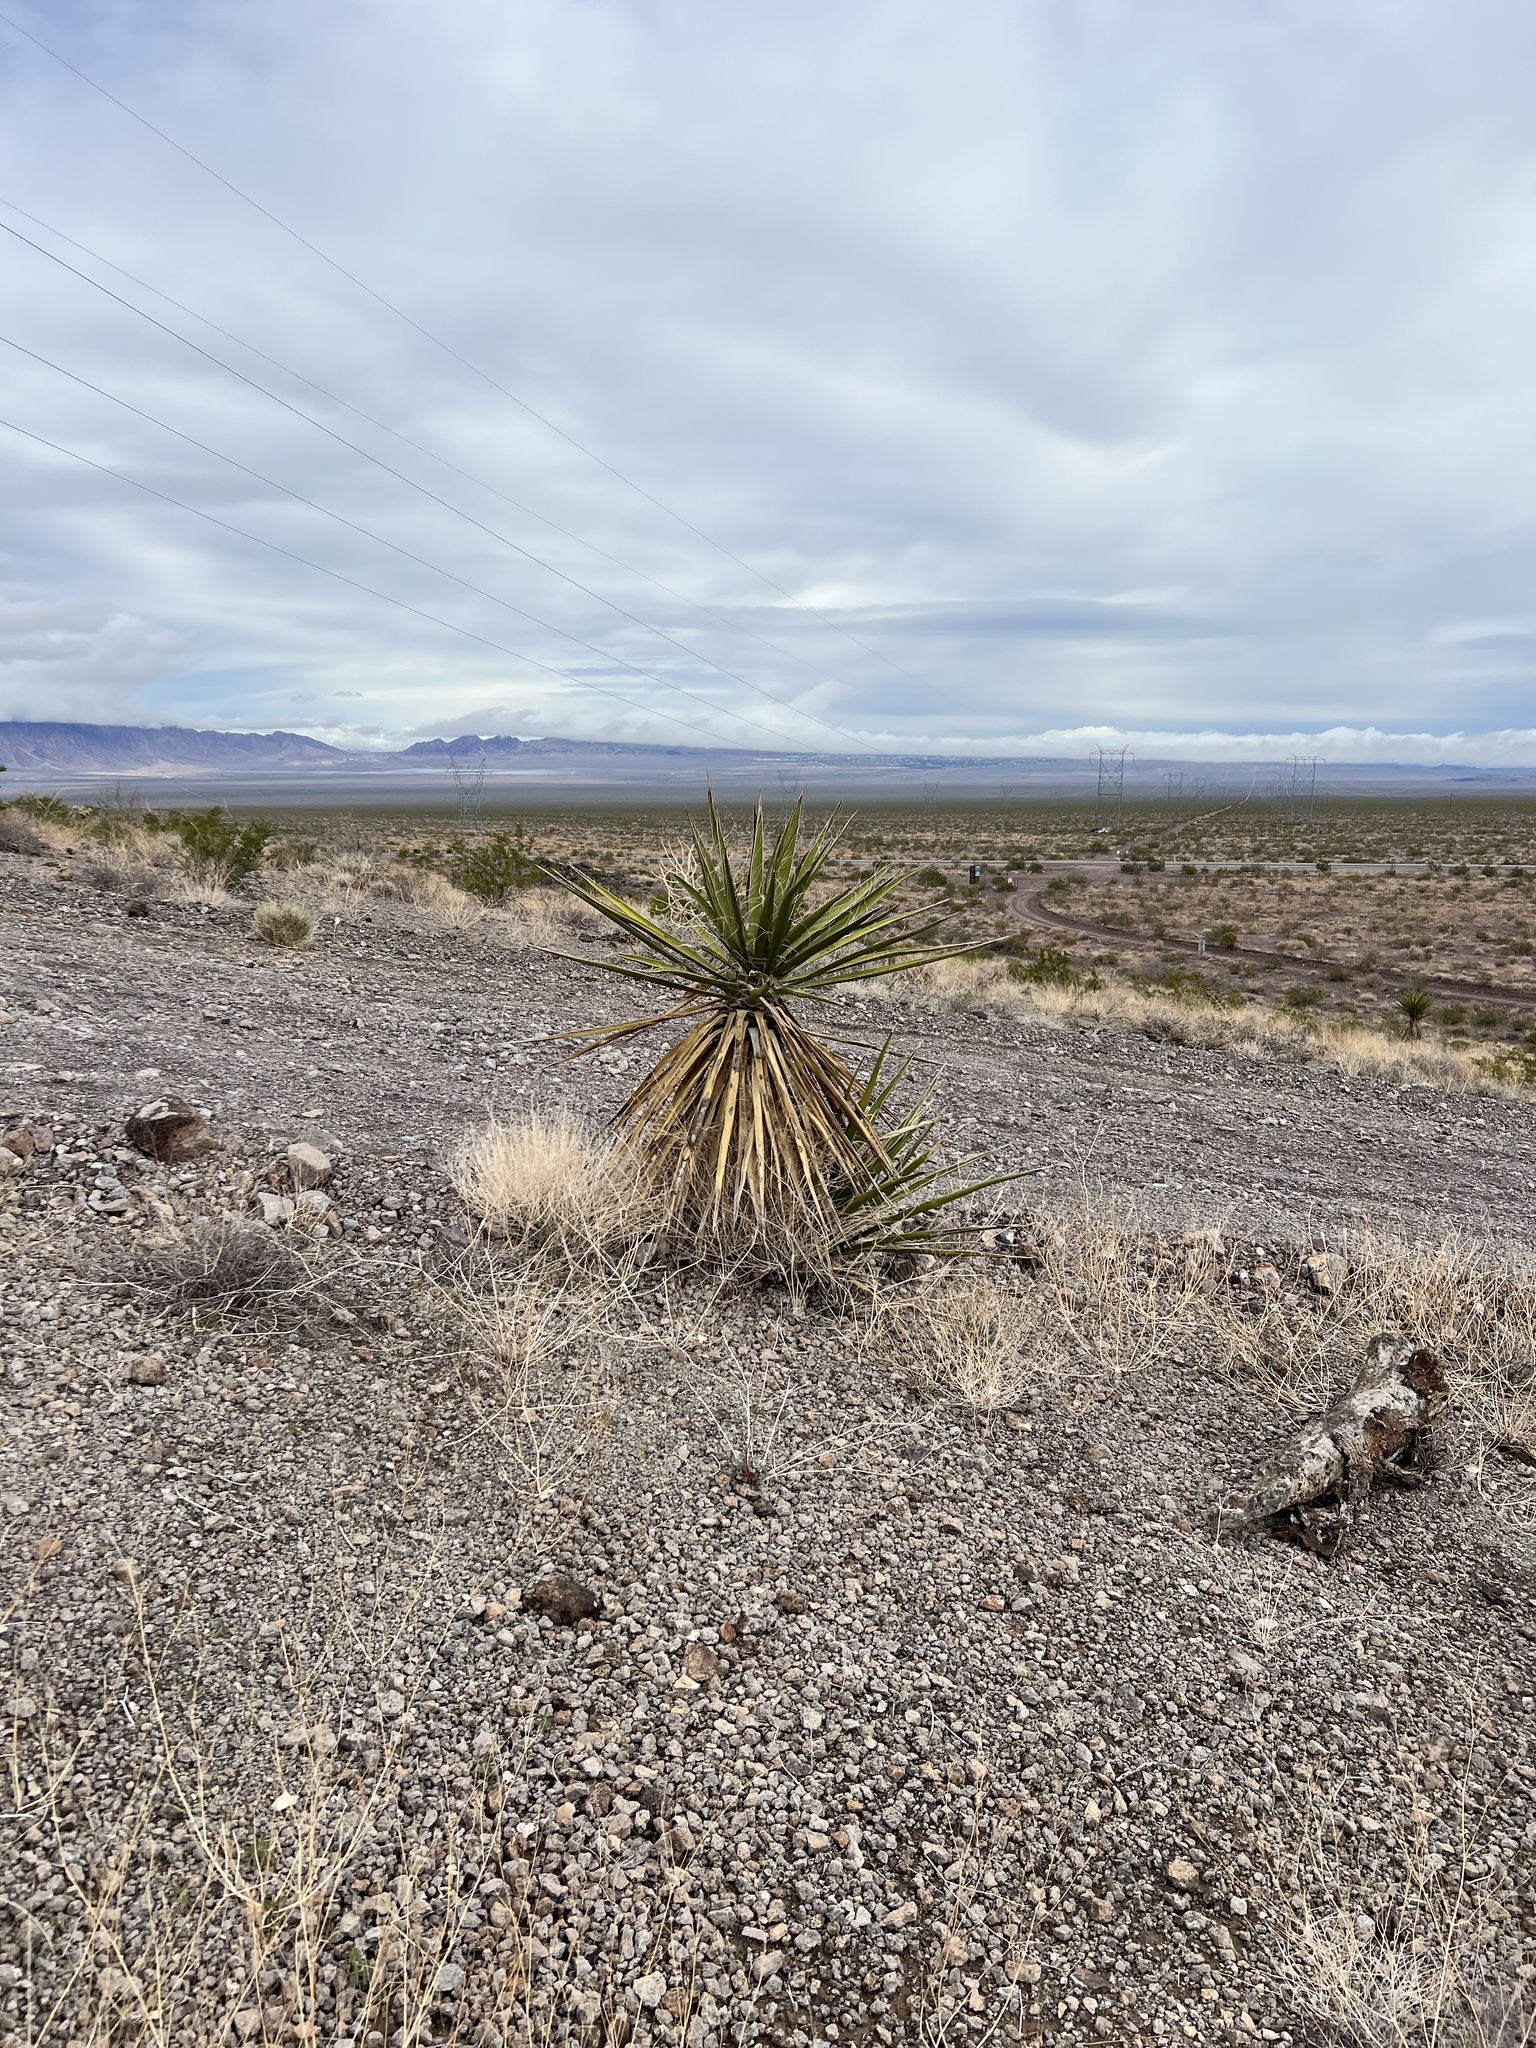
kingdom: Plantae
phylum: Tracheophyta
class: Liliopsida
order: Asparagales
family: Asparagaceae
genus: Yucca
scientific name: Yucca schidigera
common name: Mojave yucca
